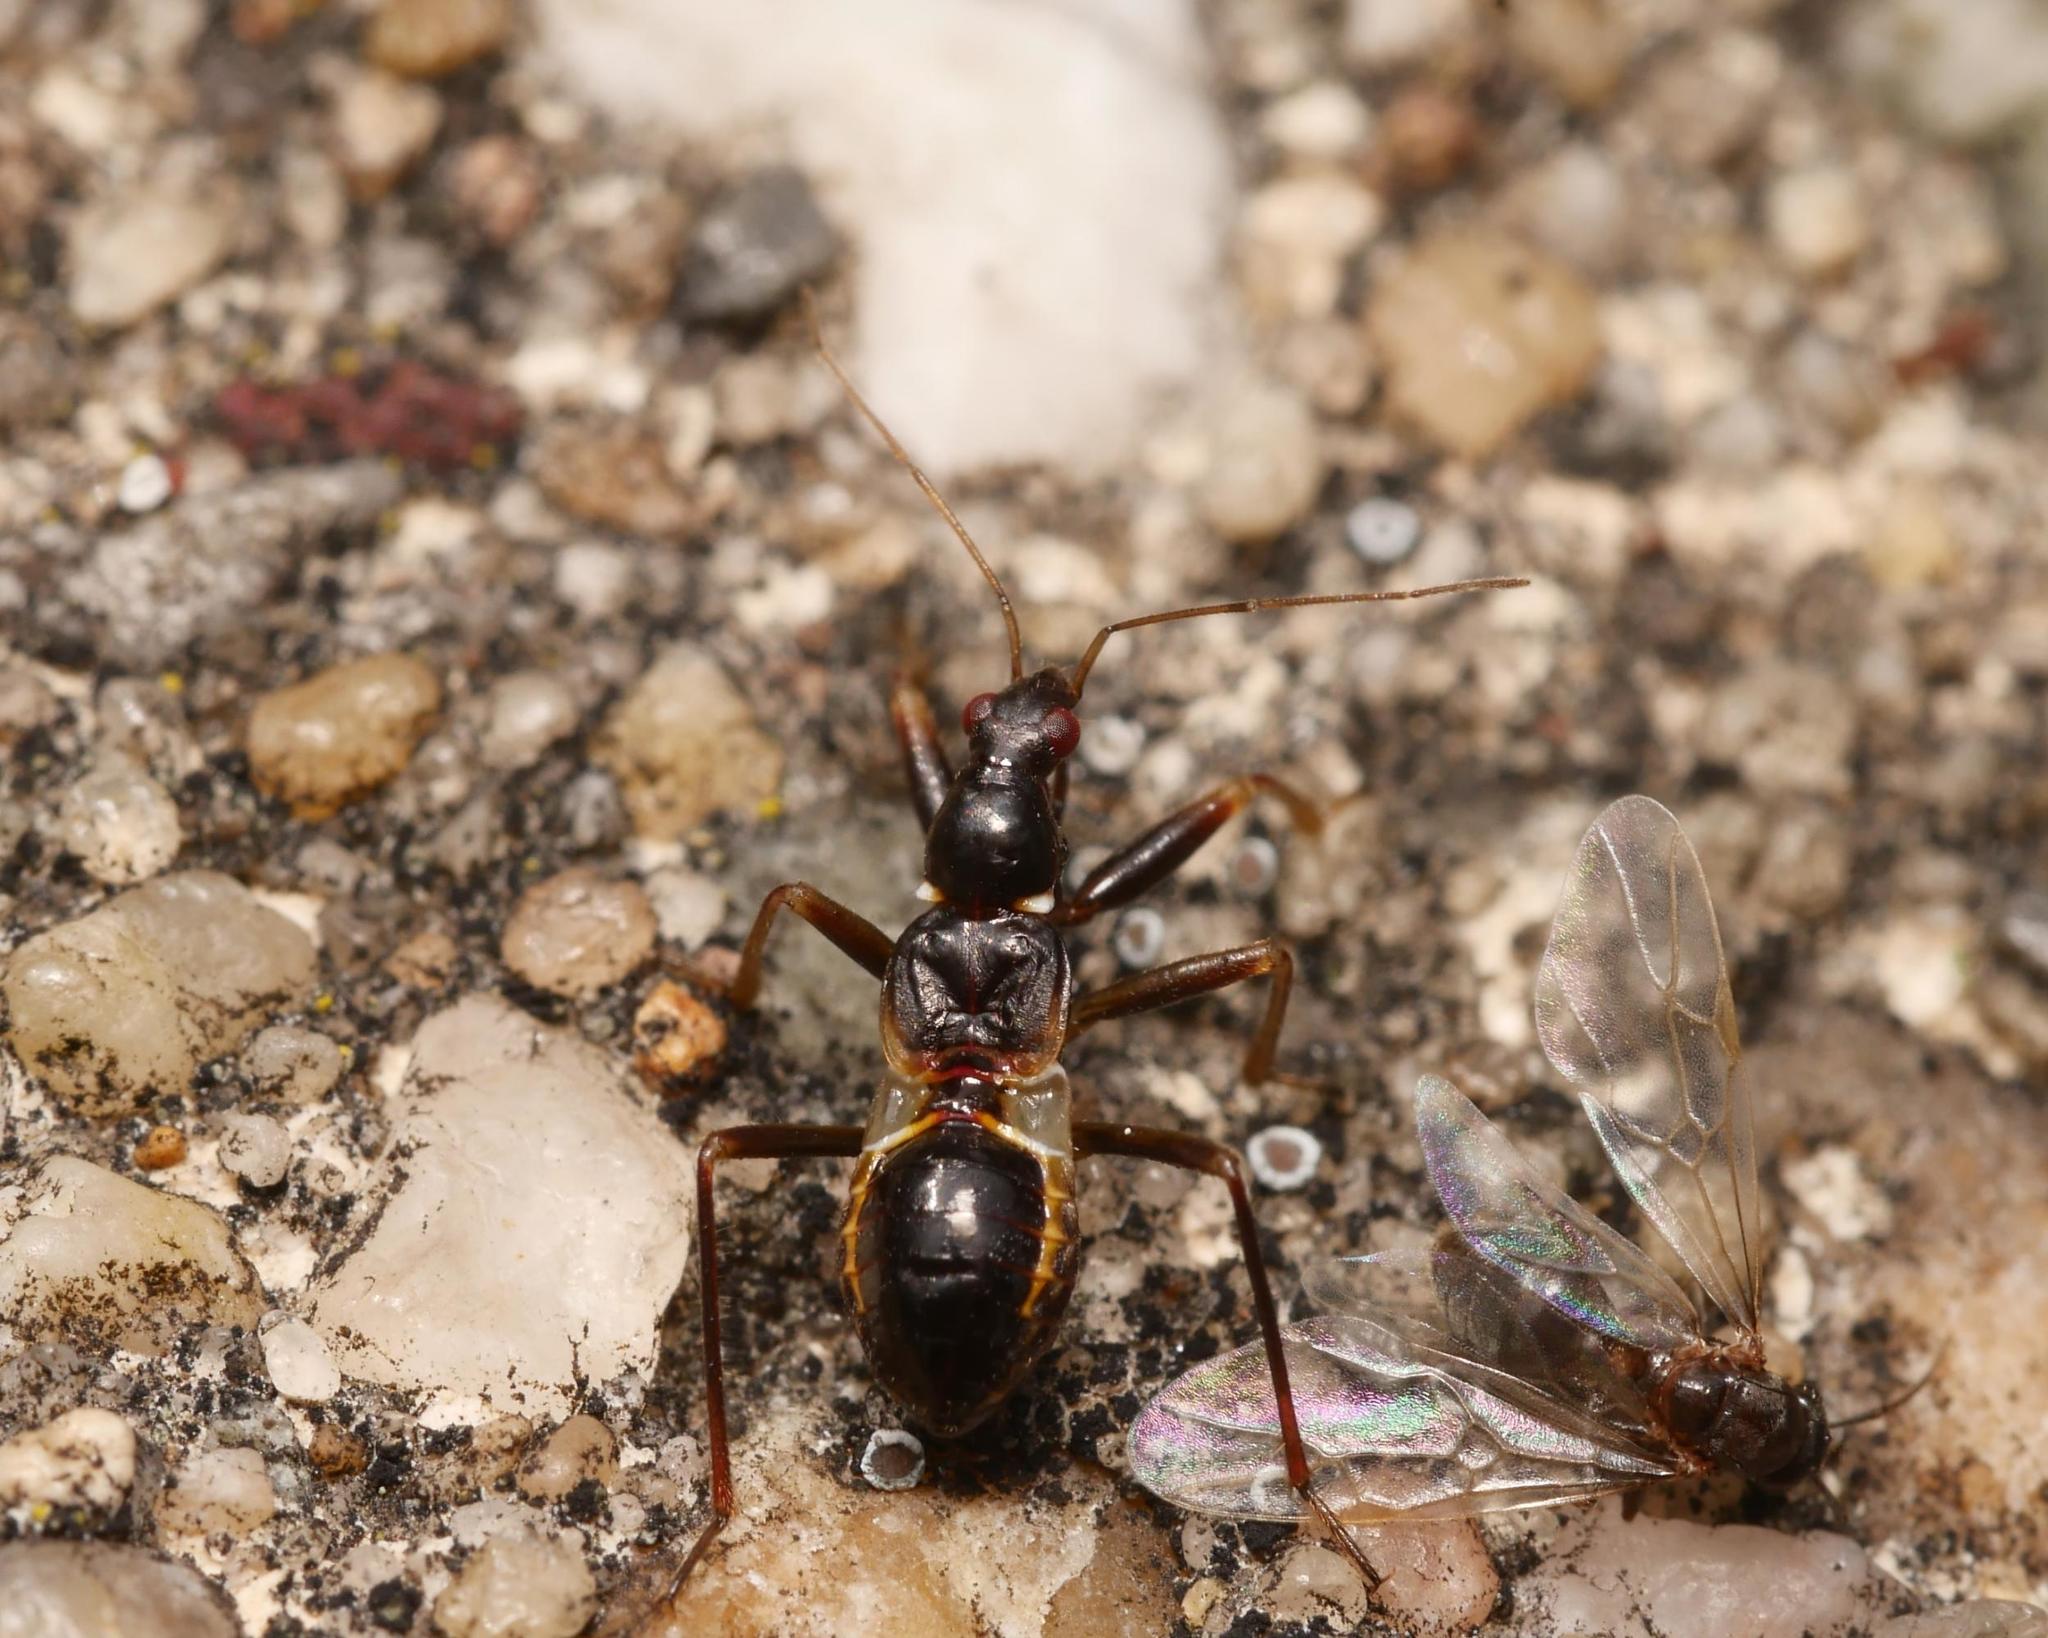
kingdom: Animalia
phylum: Arthropoda
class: Insecta
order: Hemiptera
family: Nabidae
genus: Himacerus
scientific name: Himacerus mirmicoides
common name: Ant damsel bug
